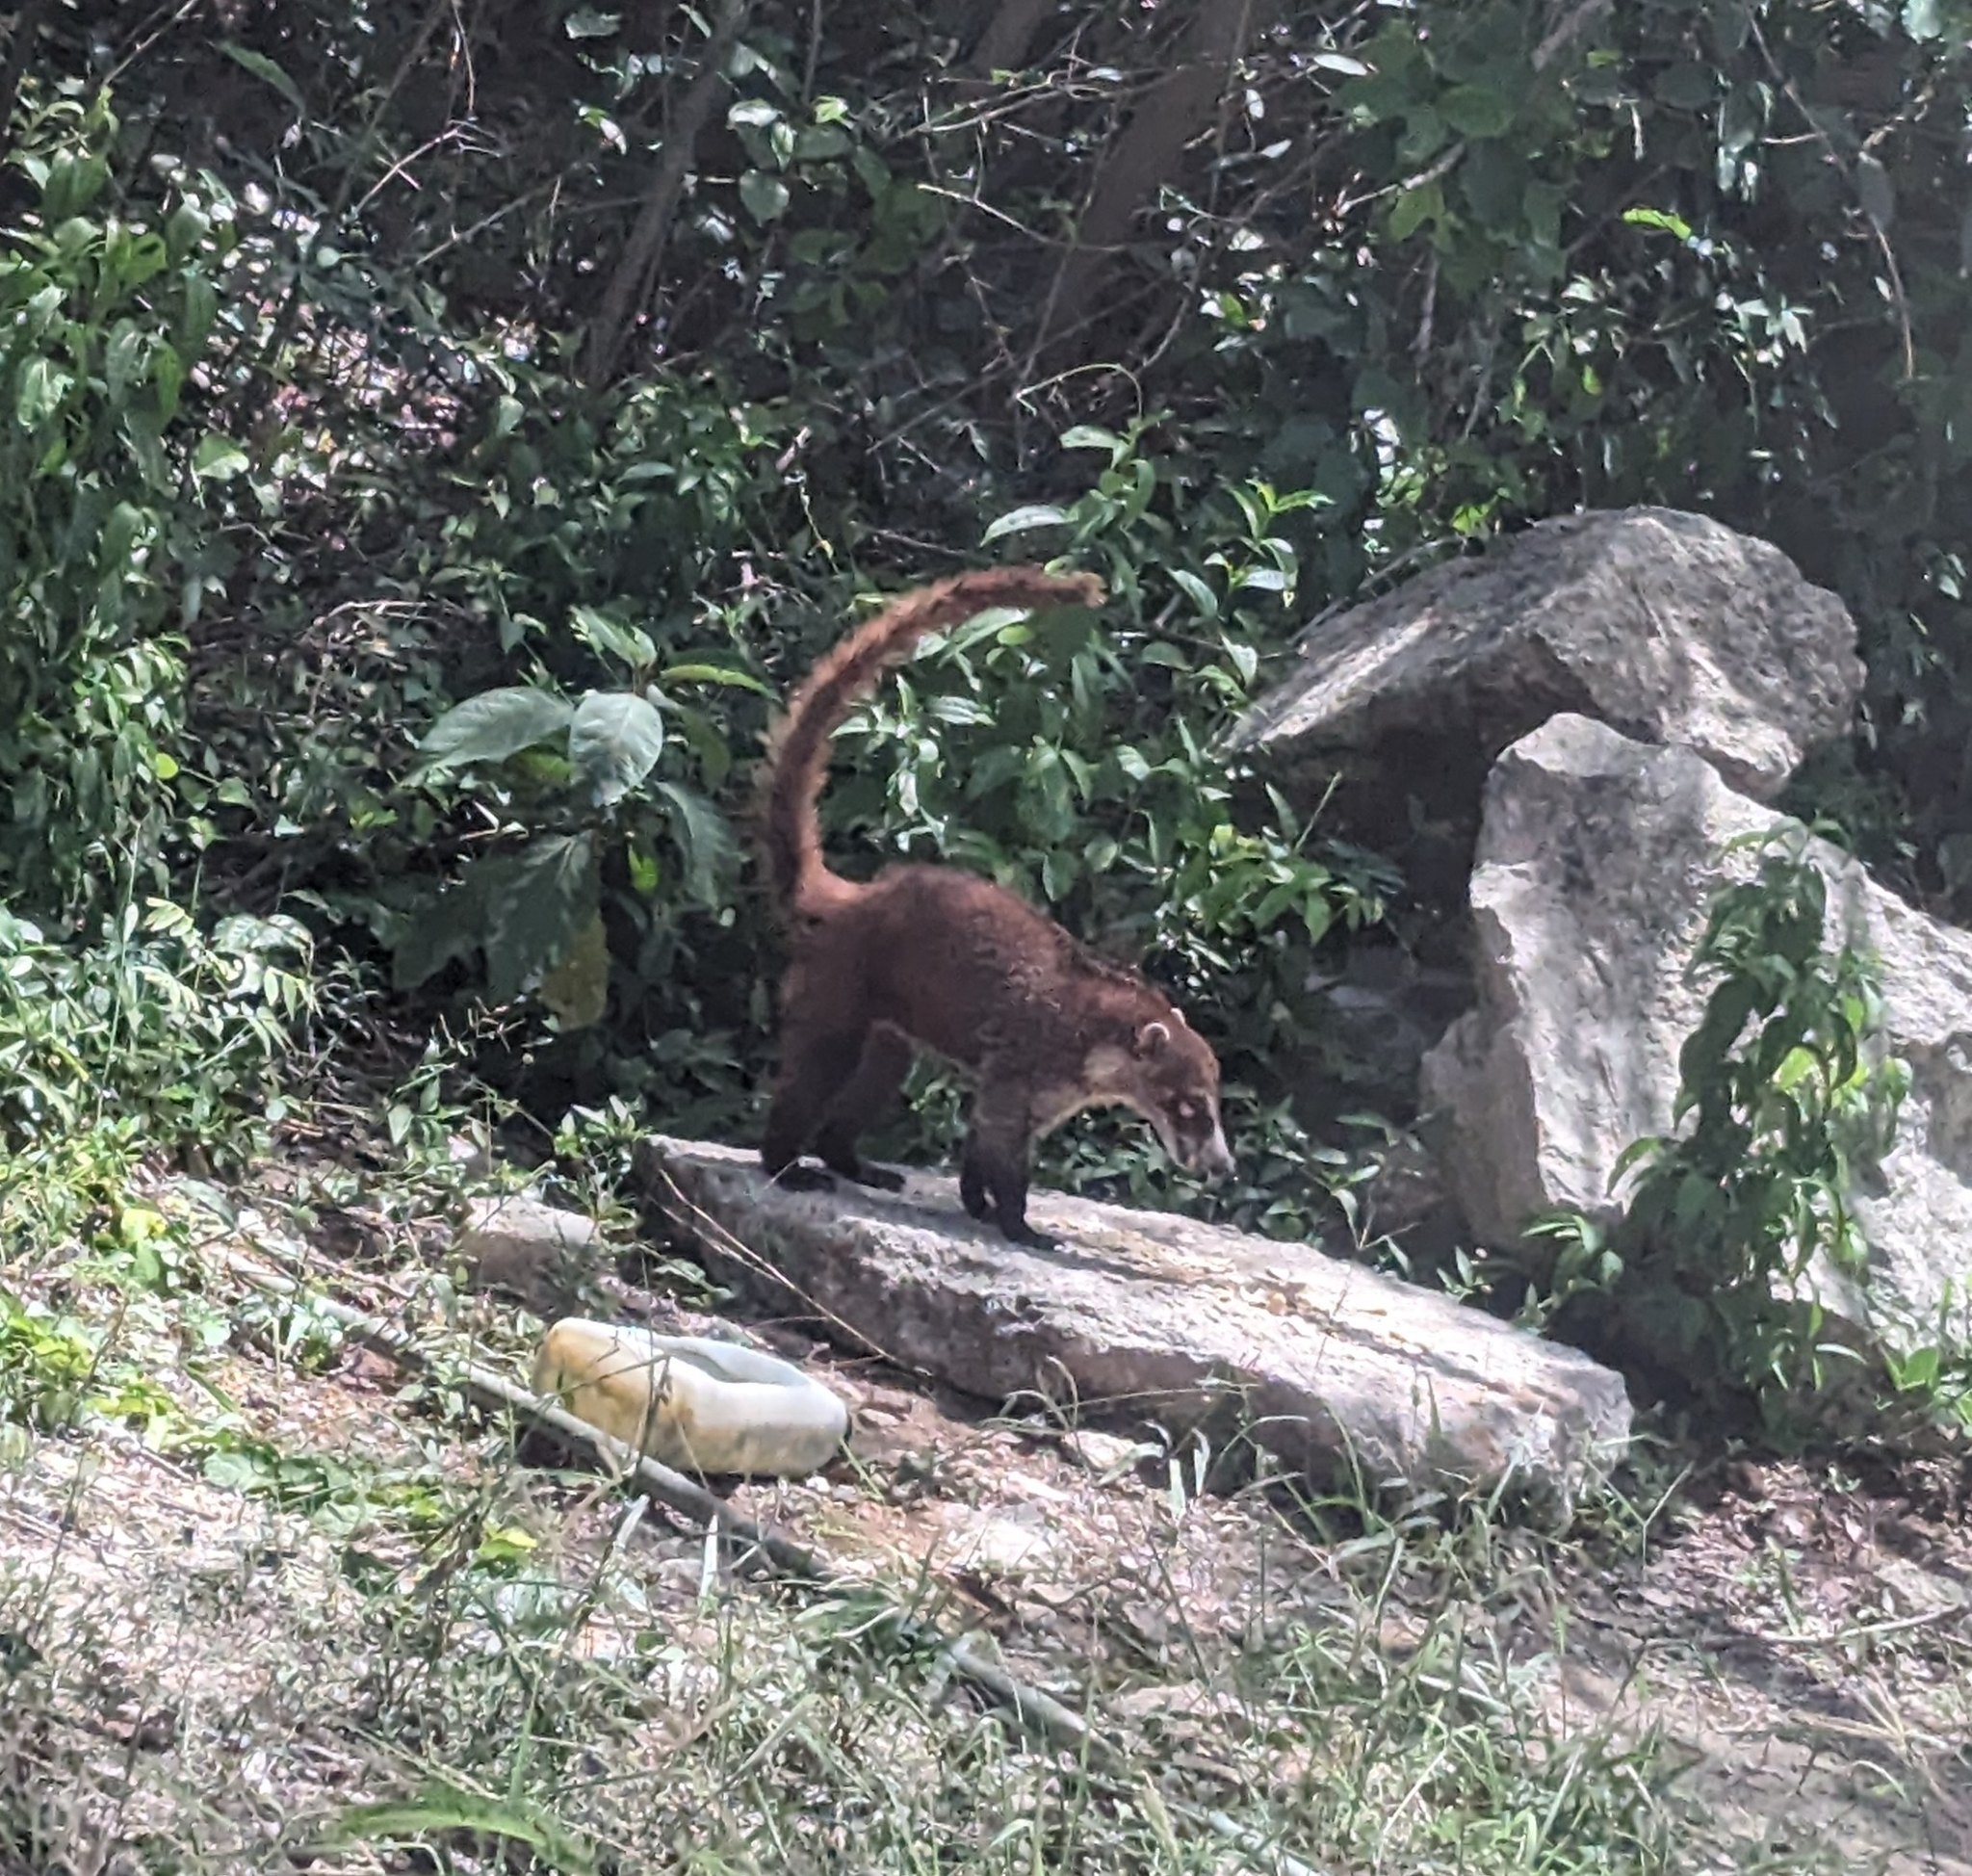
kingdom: Animalia
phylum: Chordata
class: Mammalia
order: Carnivora
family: Procyonidae
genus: Nasua
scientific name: Nasua narica
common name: White-nosed coati
